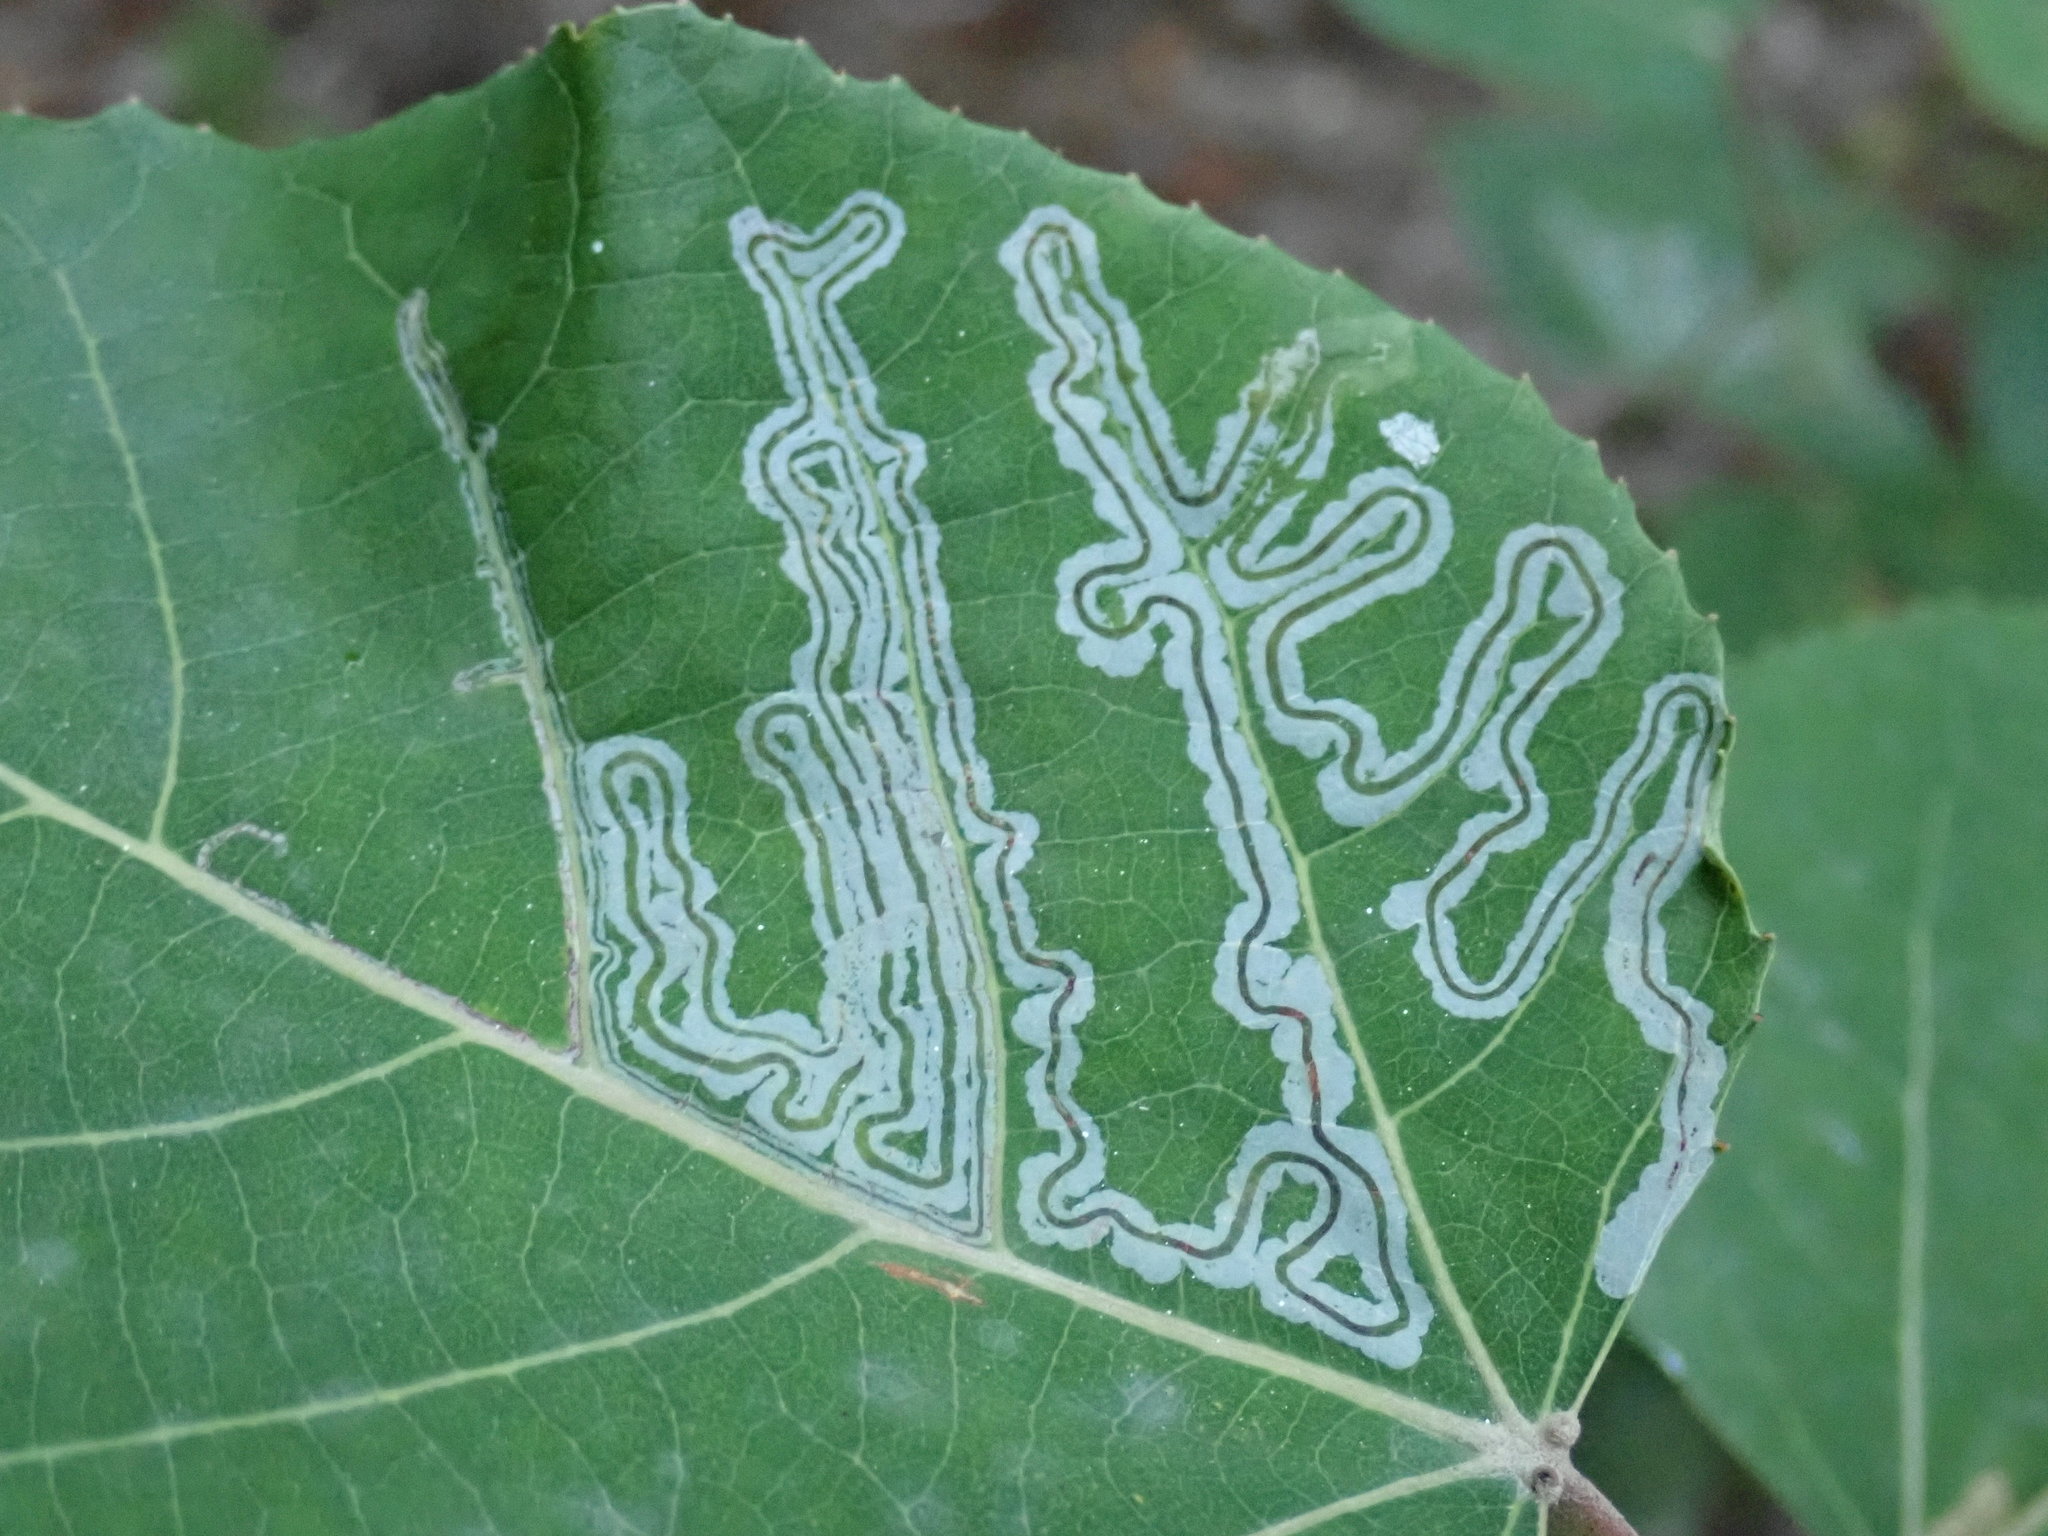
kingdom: Animalia
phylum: Arthropoda
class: Insecta
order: Lepidoptera
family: Gracillariidae
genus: Phyllocnistis
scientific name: Phyllocnistis populiella
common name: Aspen serpentine leafminer moth
